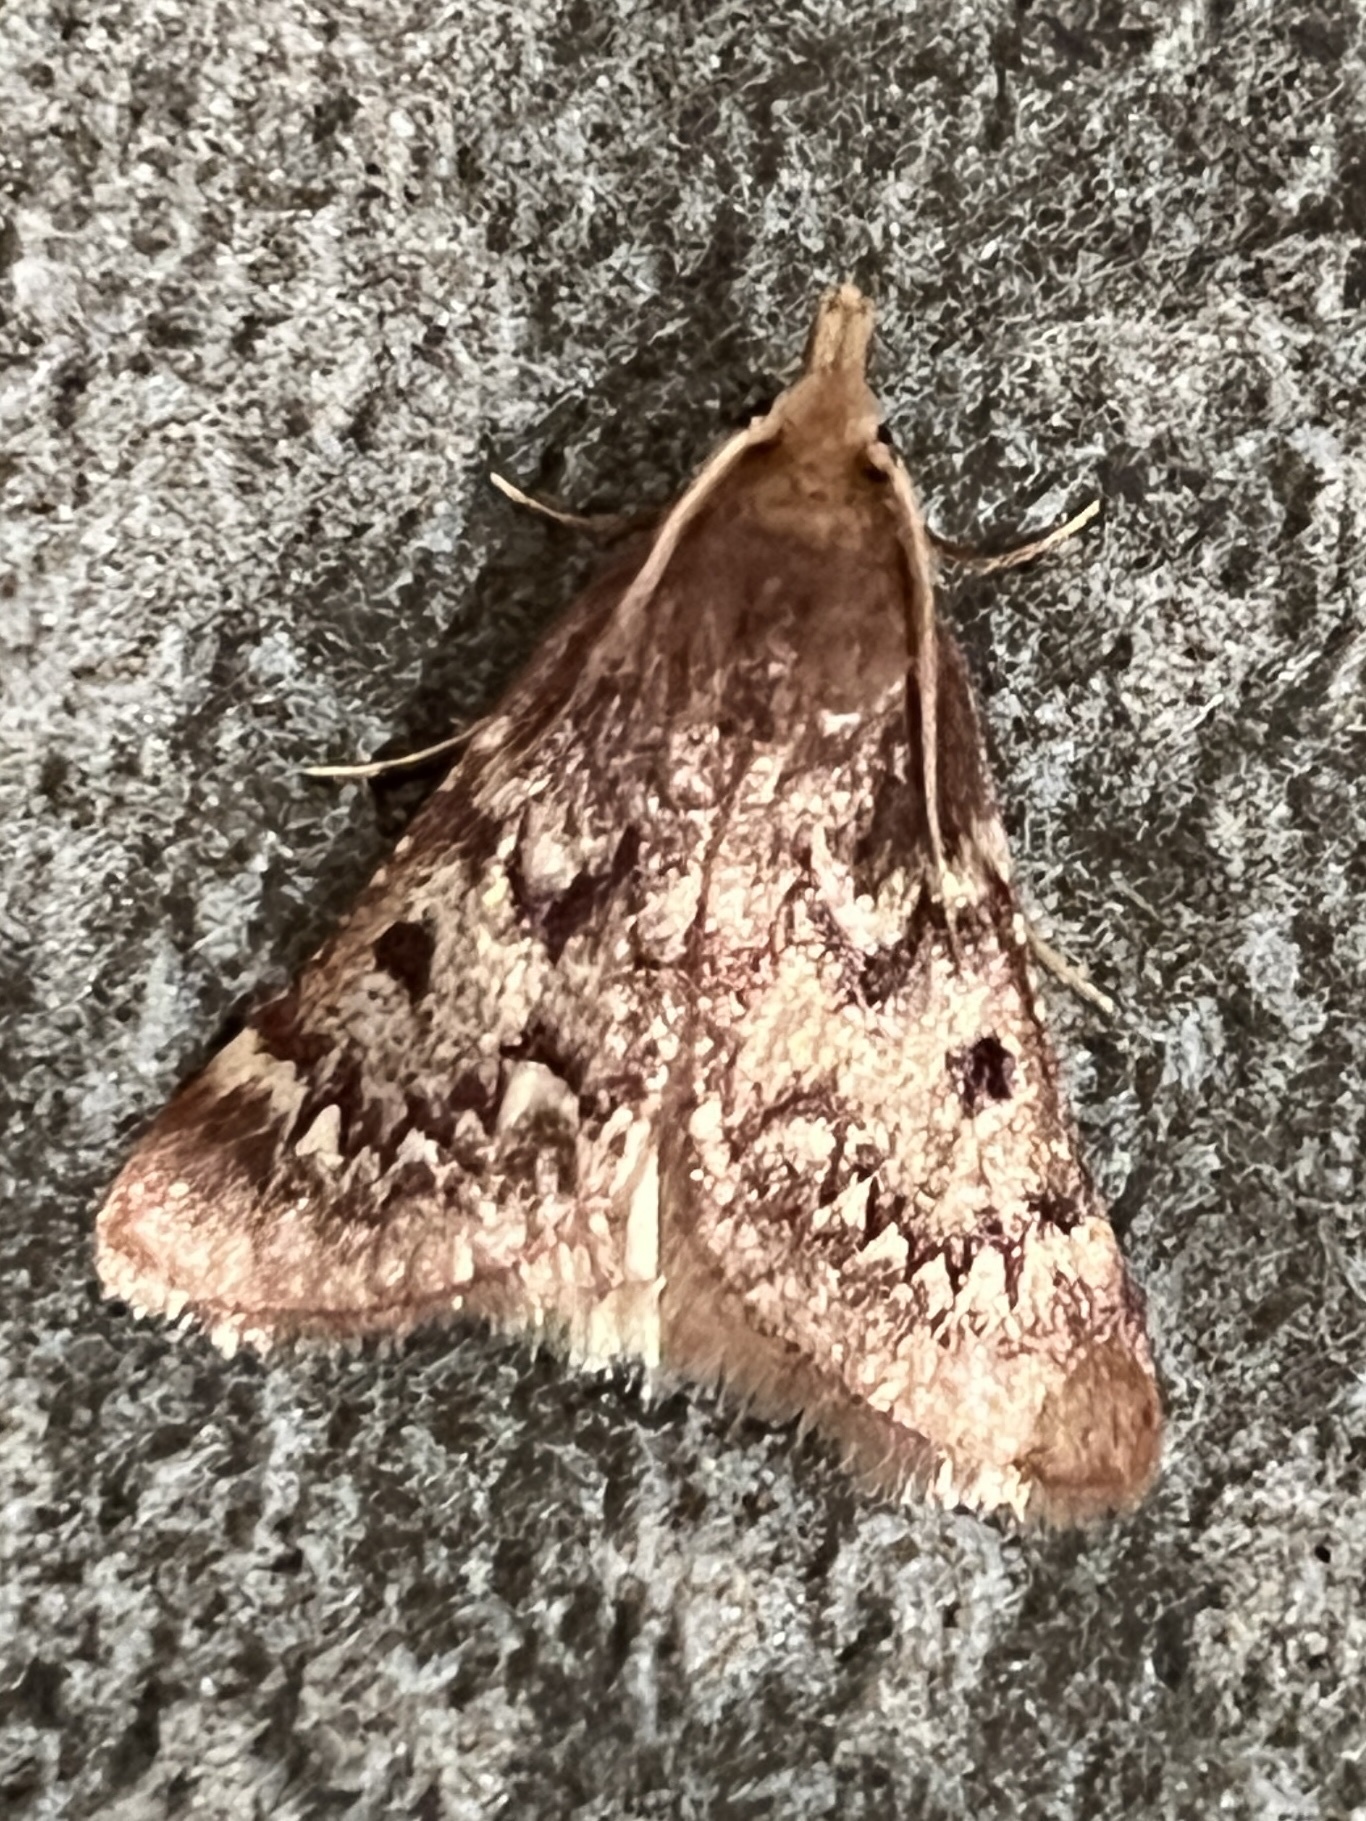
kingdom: Animalia
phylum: Arthropoda
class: Insecta
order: Lepidoptera
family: Pyralidae
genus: Oryctocera
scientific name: Oryctocera laminalis
